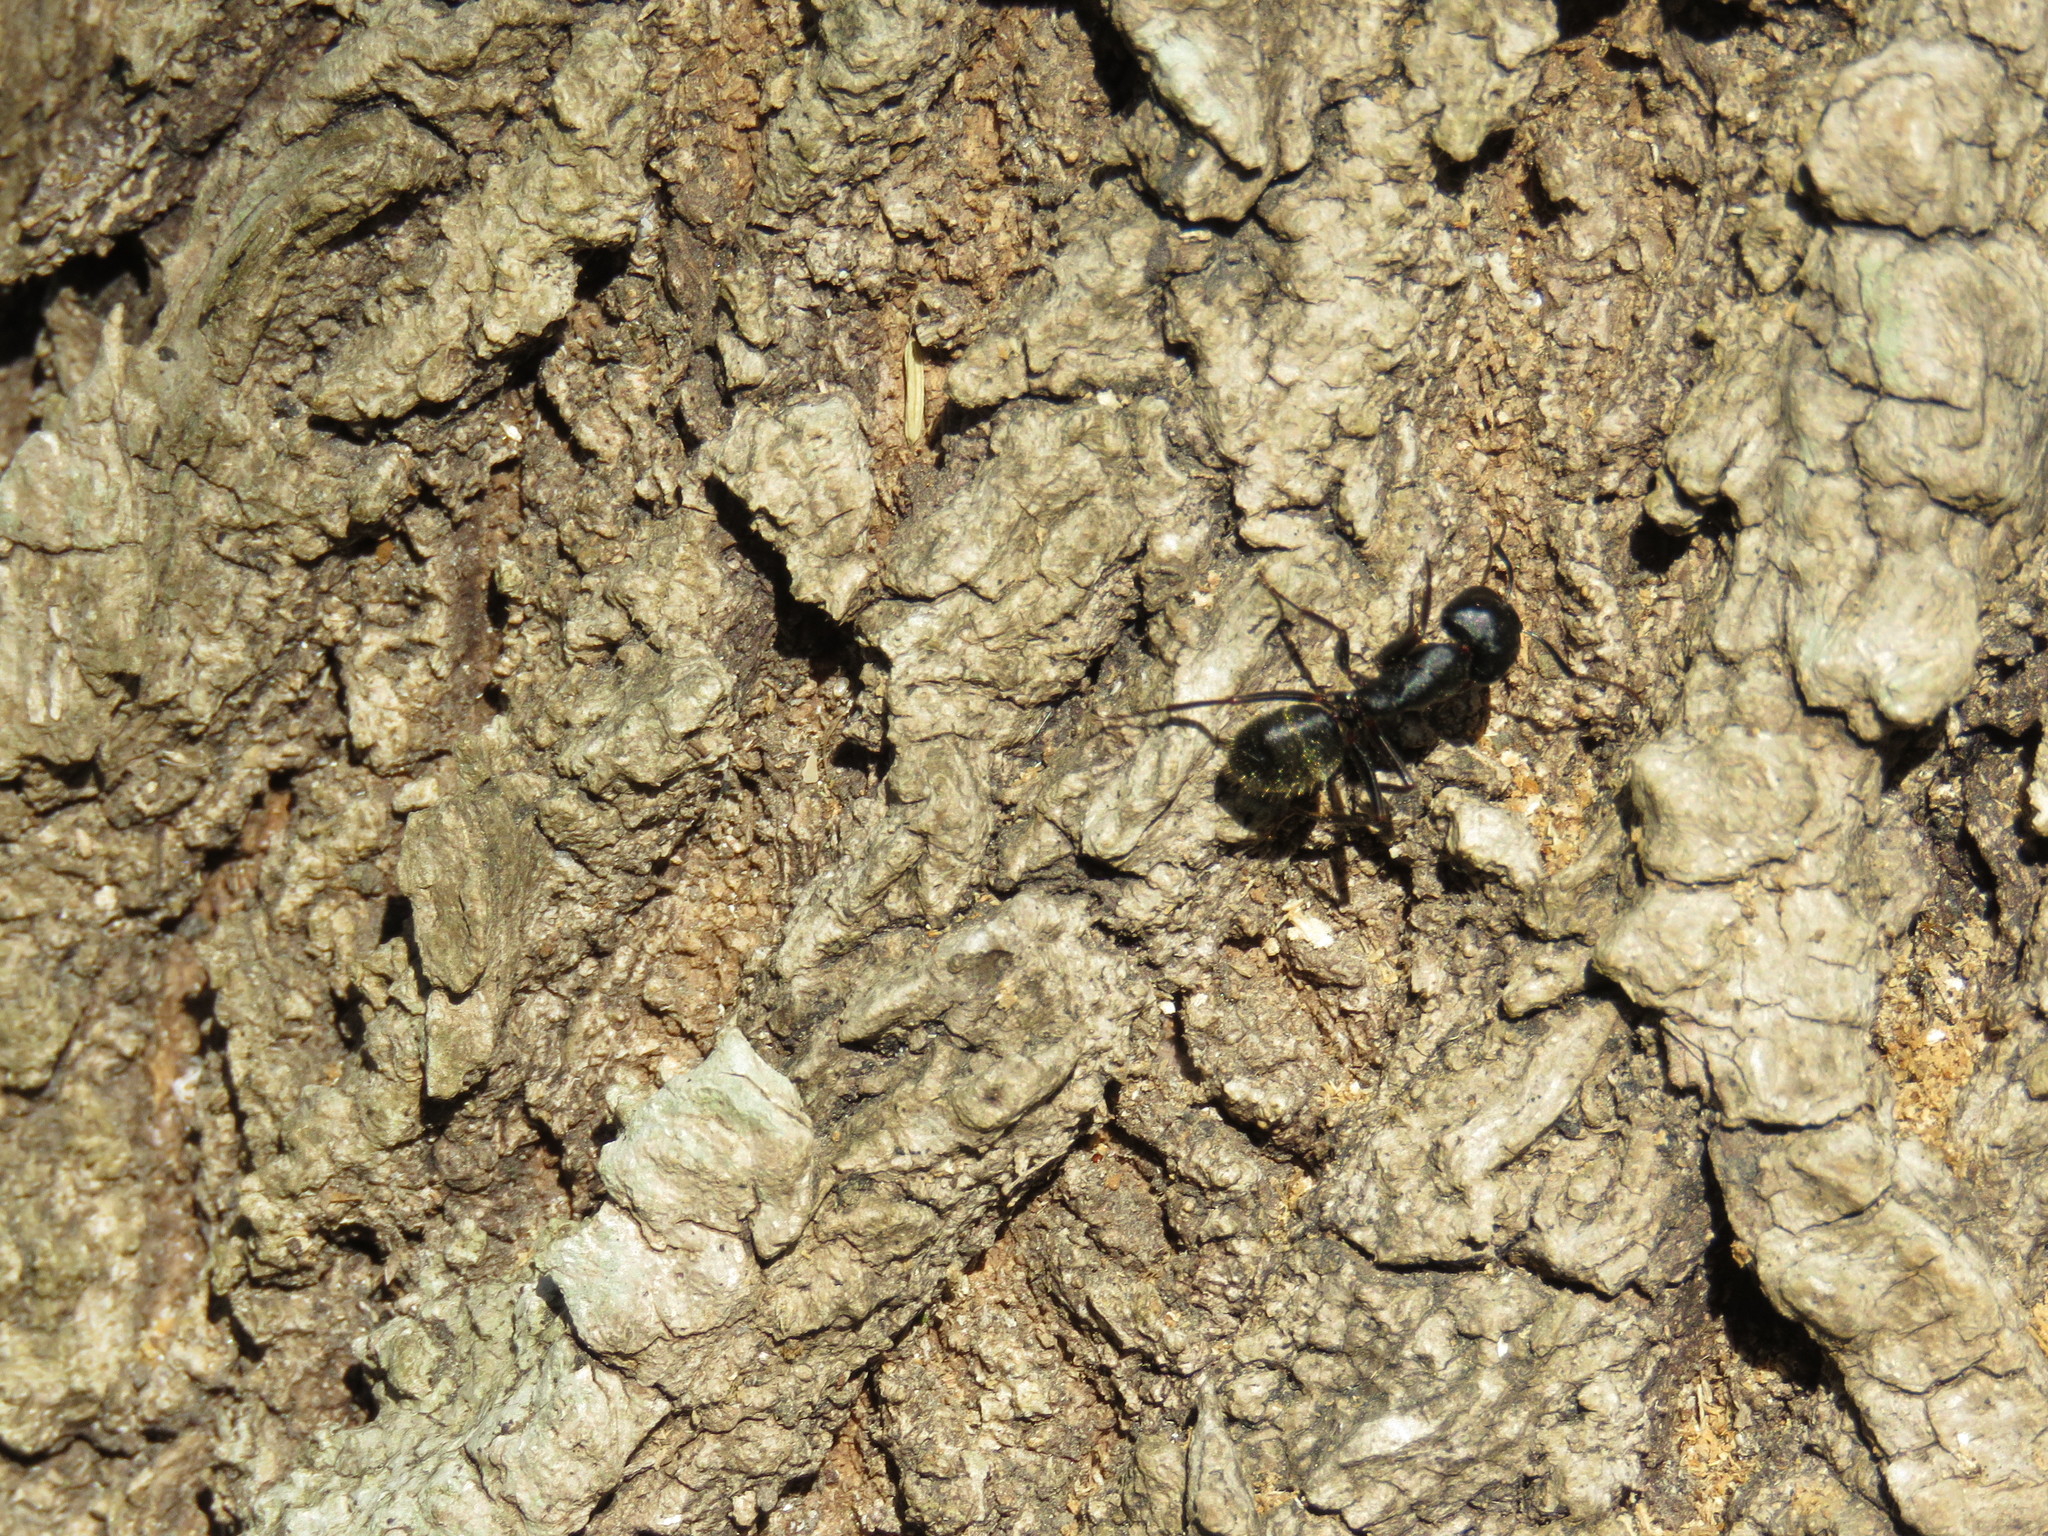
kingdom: Animalia
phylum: Arthropoda
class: Insecta
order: Hymenoptera
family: Formicidae
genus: Camponotus
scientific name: Camponotus pennsylvanicus
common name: Black carpenter ant
